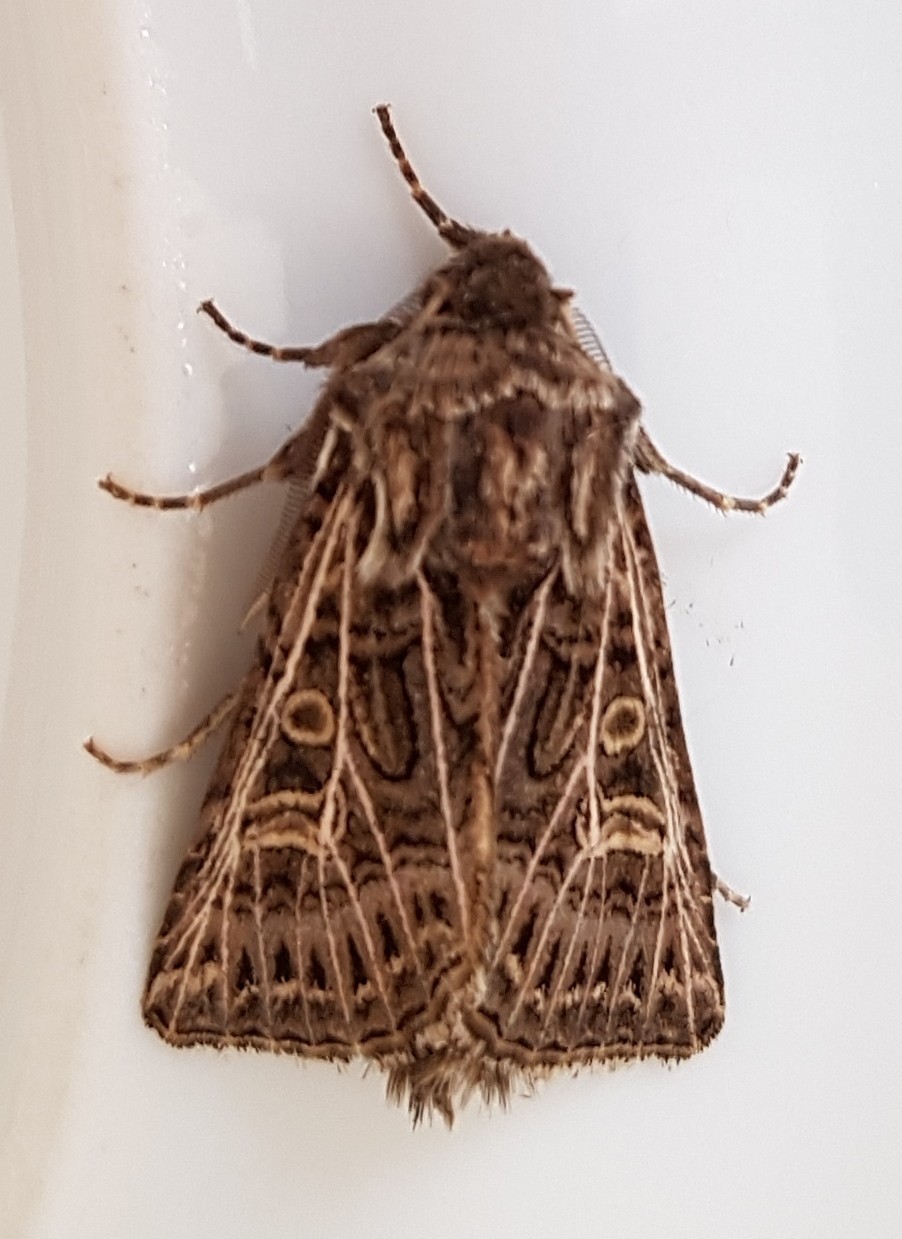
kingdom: Animalia
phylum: Arthropoda
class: Insecta
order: Lepidoptera
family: Noctuidae
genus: Tholera
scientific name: Tholera decimalis
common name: Feathered gothic
